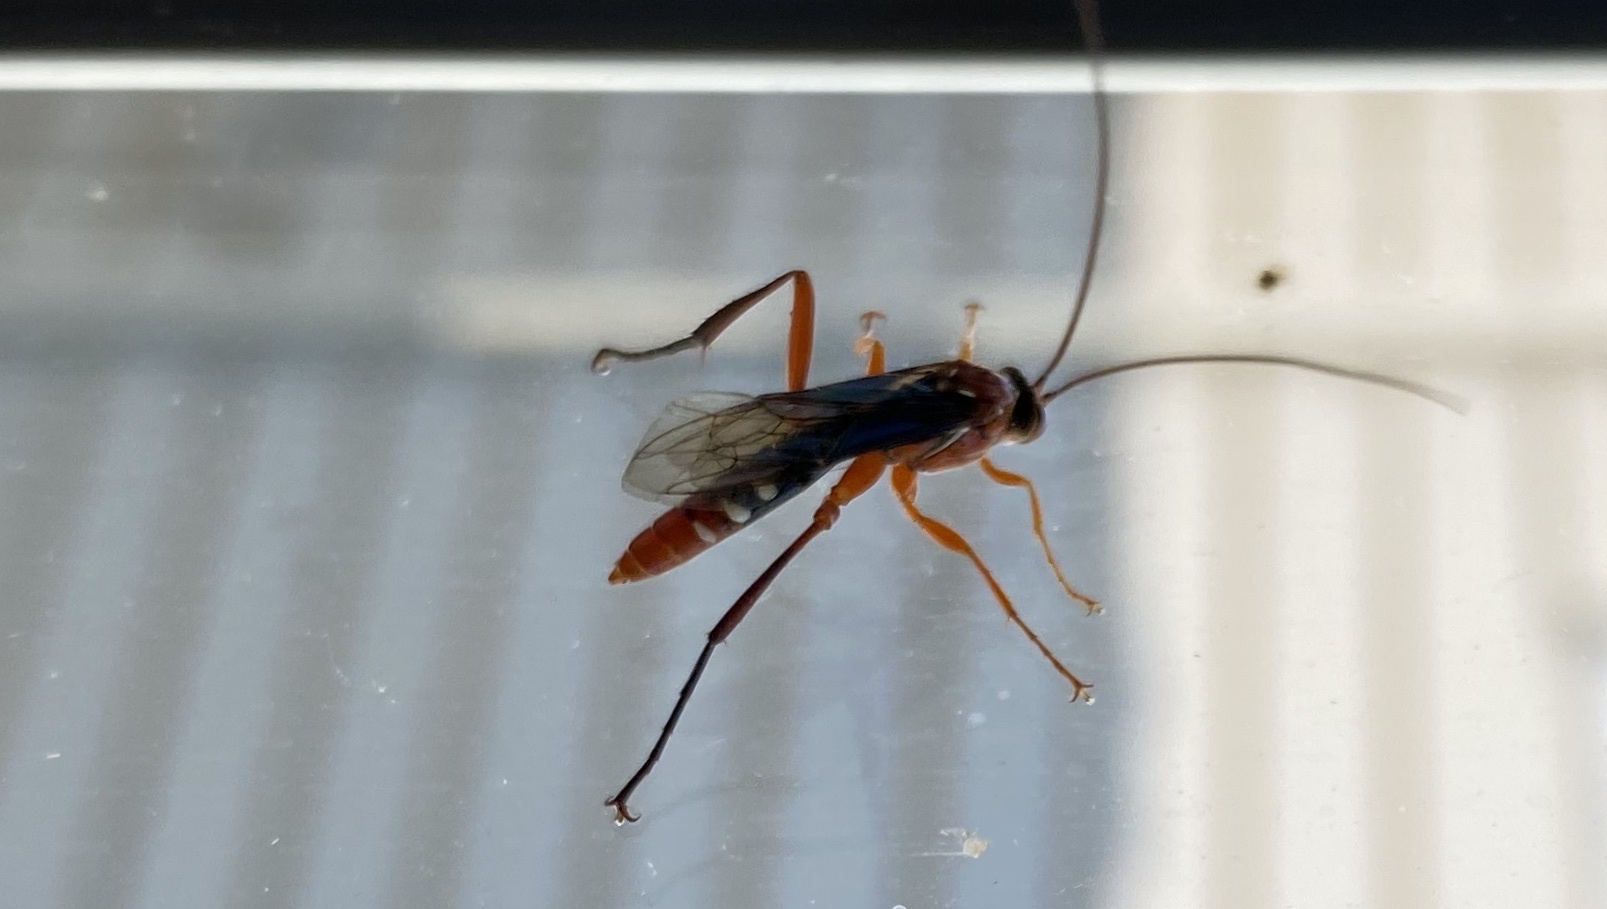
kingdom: Animalia
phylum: Arthropoda
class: Insecta
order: Hymenoptera
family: Ichneumonidae
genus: Lissopimpla
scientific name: Lissopimpla excelsa
